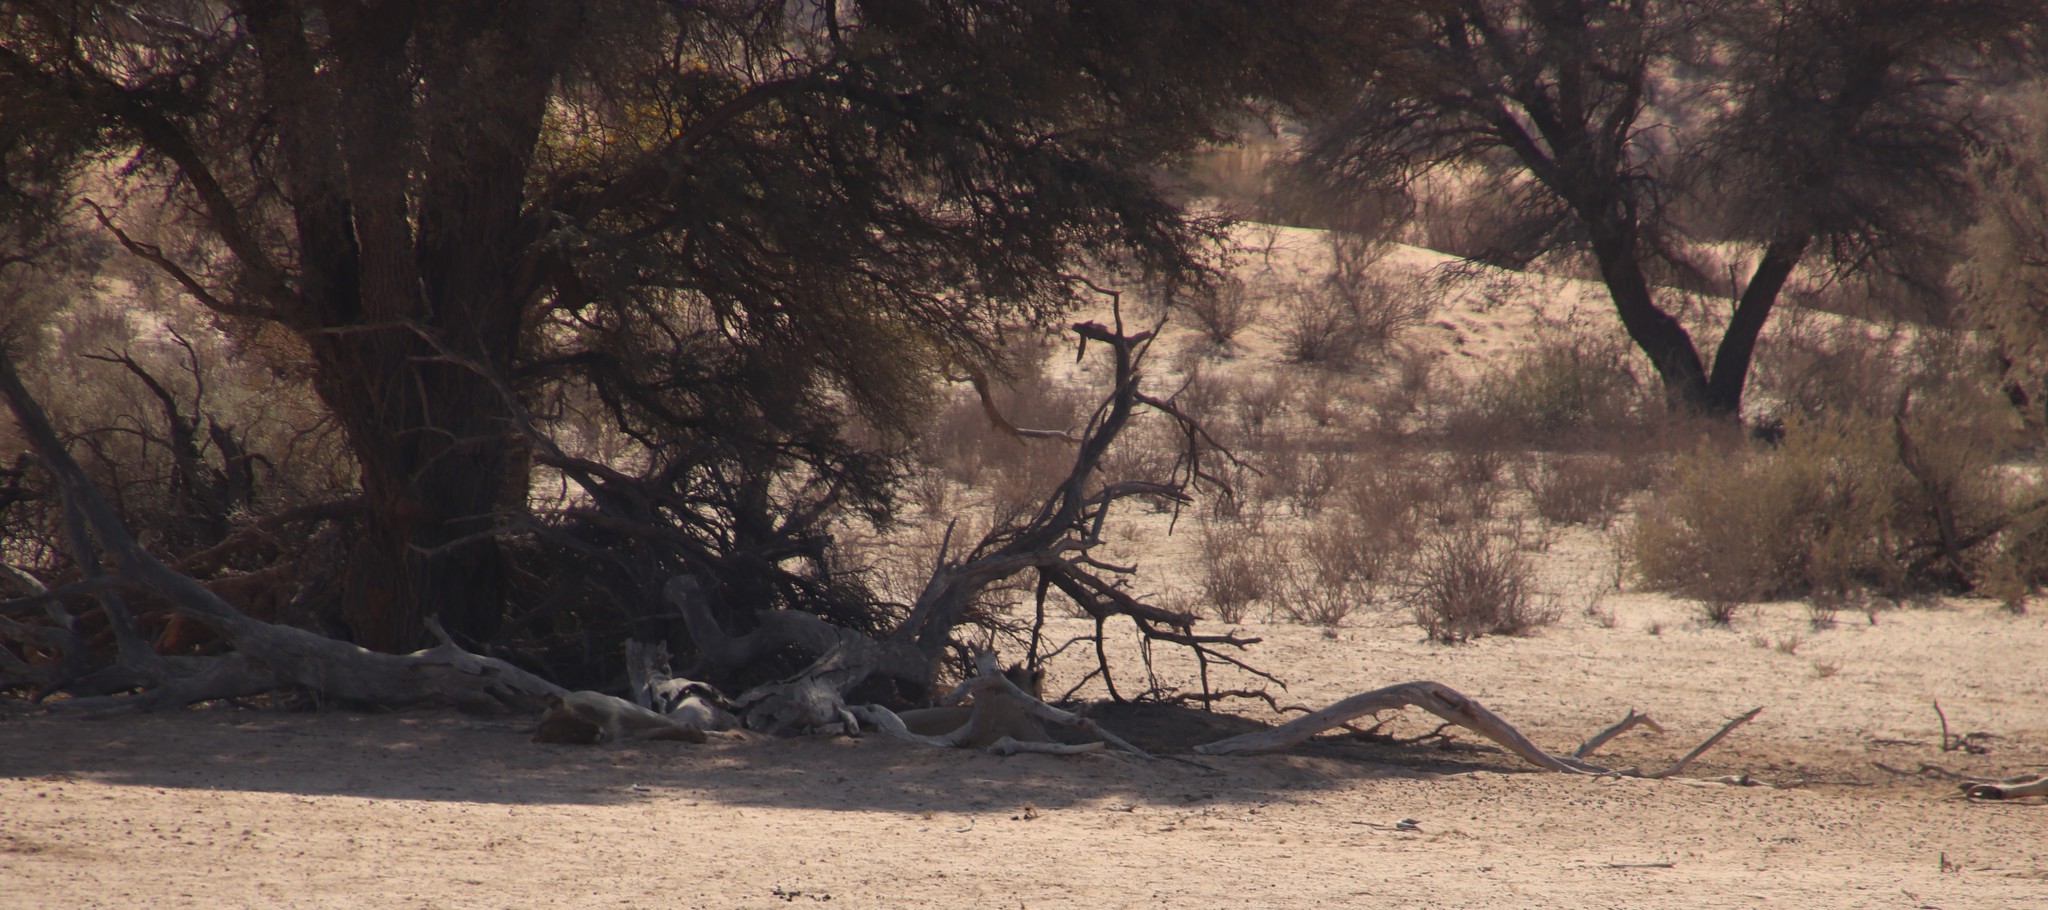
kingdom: Animalia
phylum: Chordata
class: Mammalia
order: Carnivora
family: Felidae
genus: Panthera
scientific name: Panthera leo
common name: Lion
